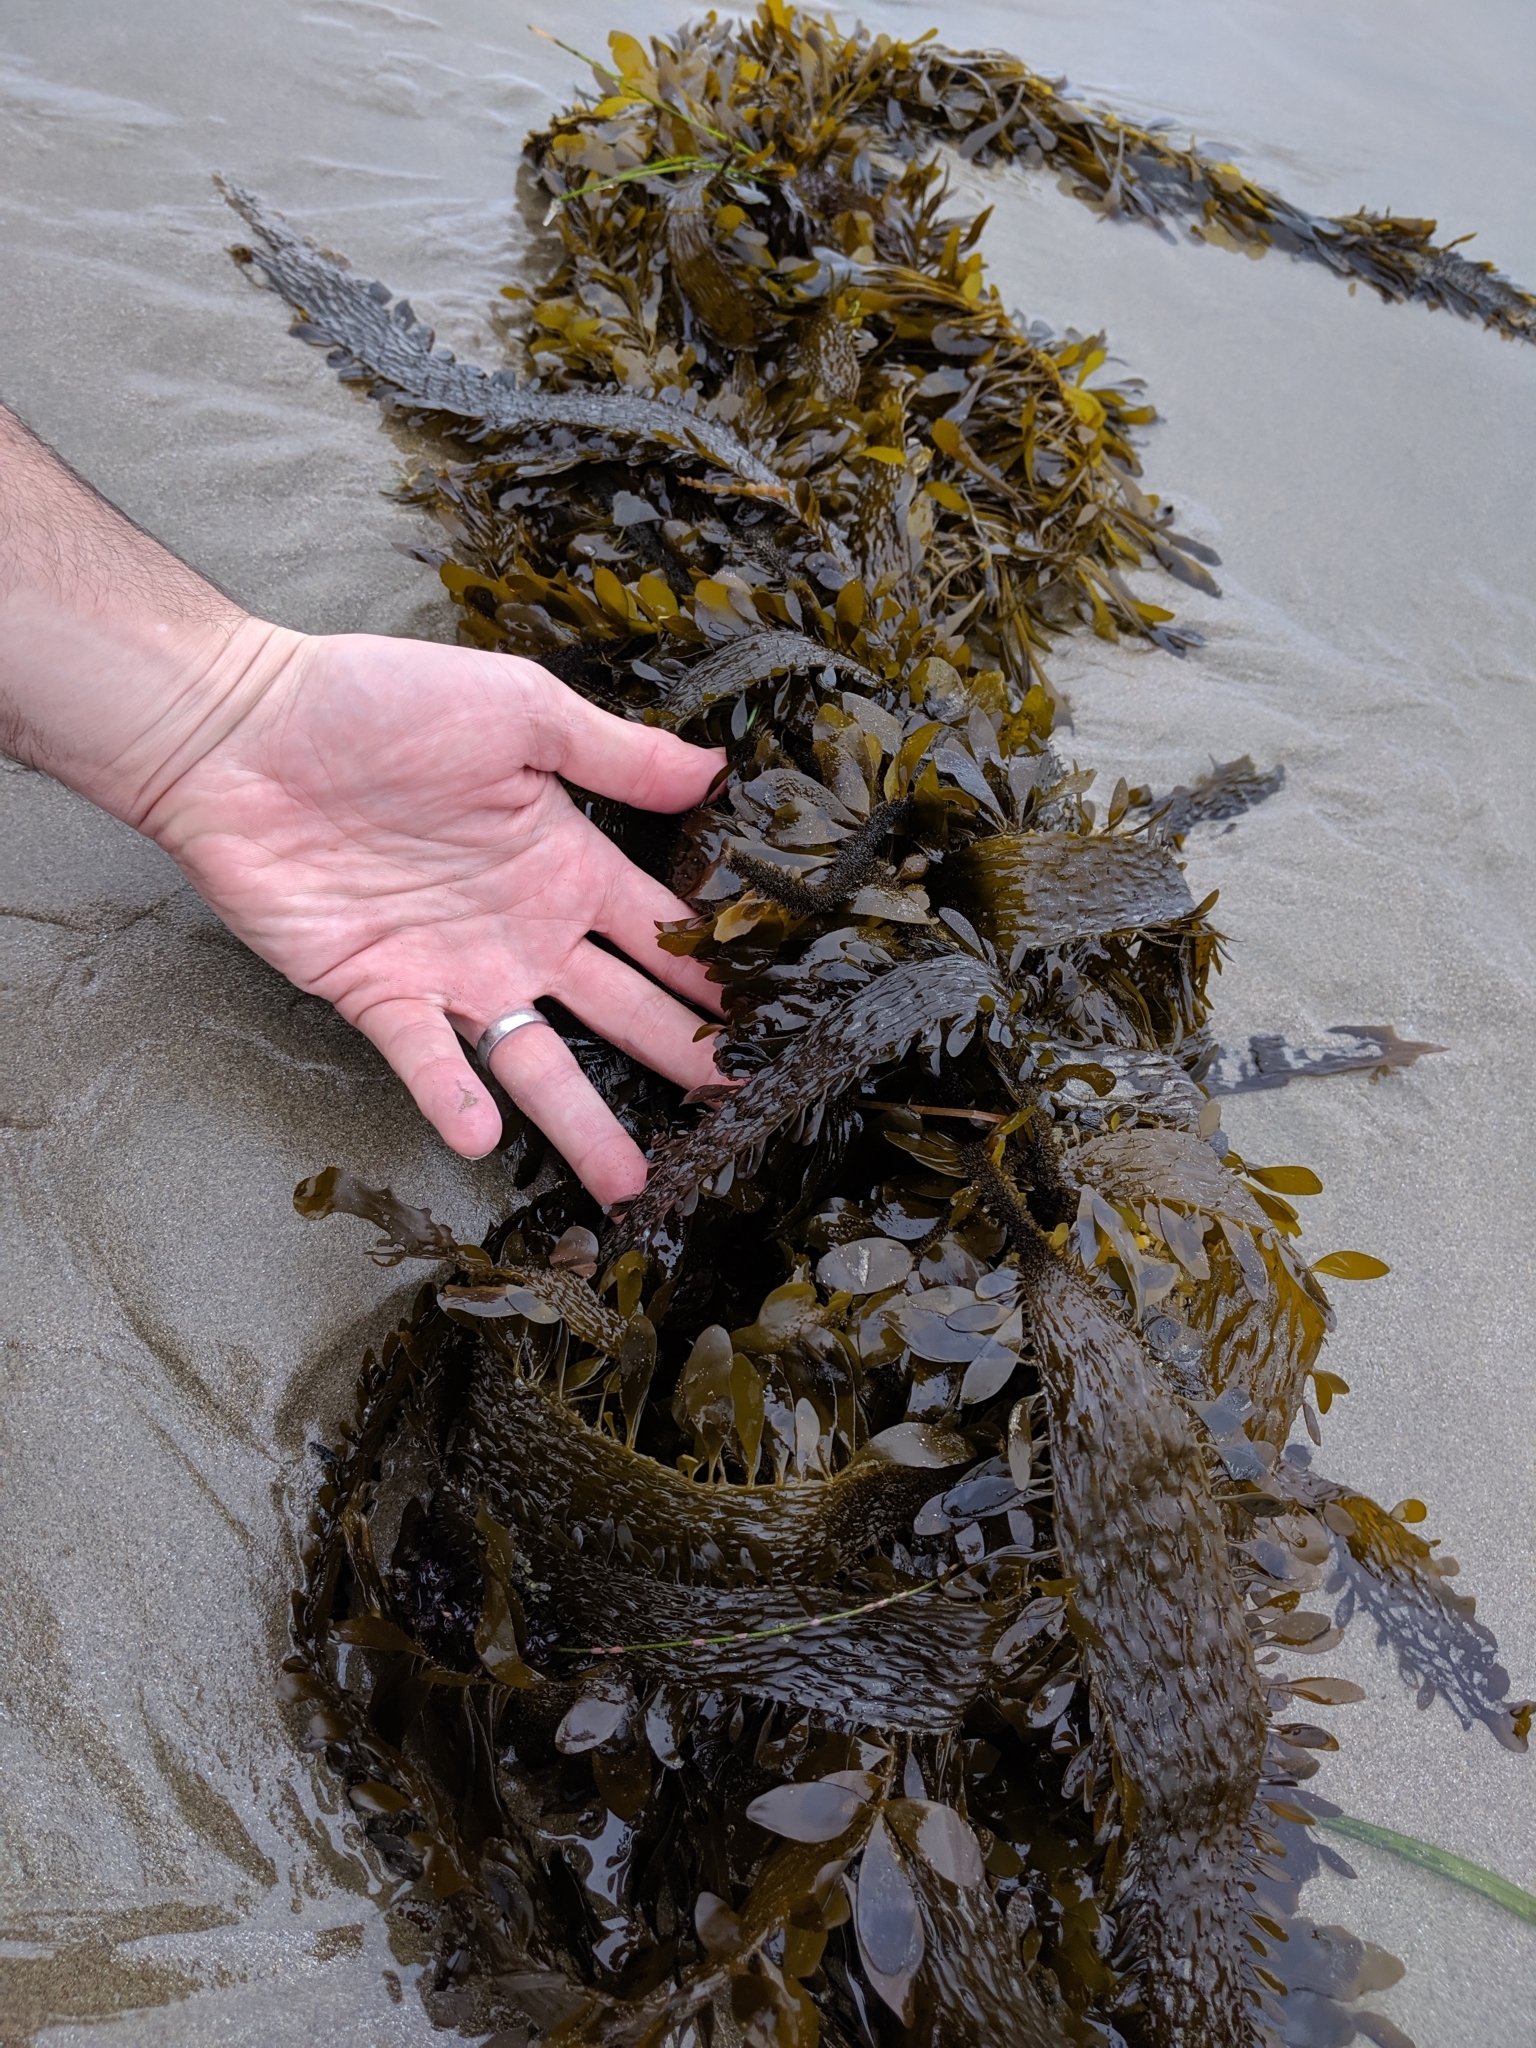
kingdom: Chromista
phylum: Ochrophyta
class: Phaeophyceae
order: Laminariales
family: Lessoniaceae
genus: Egregia
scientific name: Egregia menziesii
